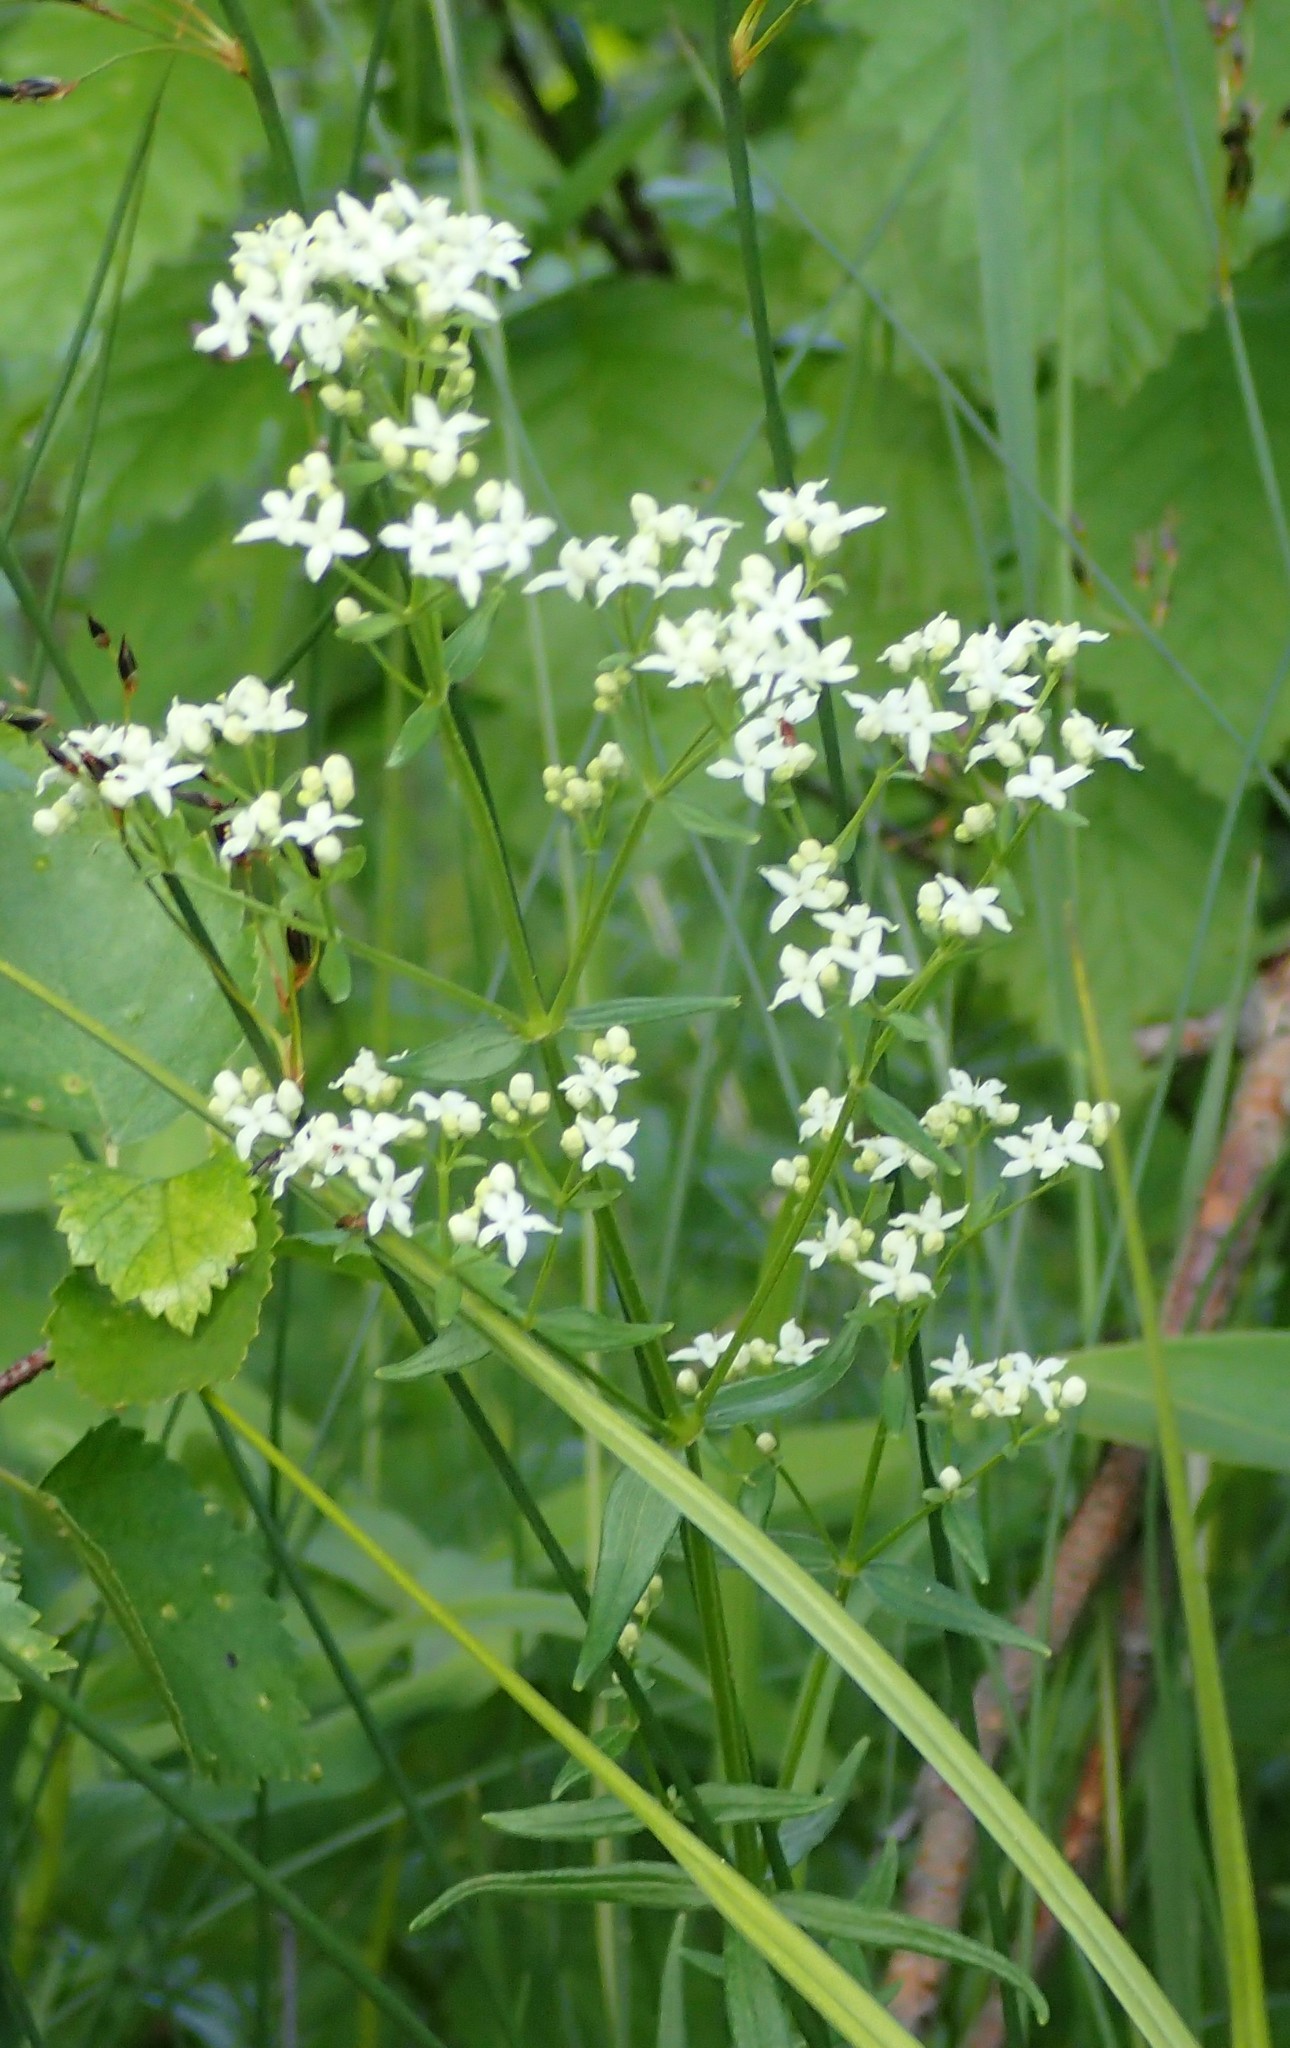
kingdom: Plantae
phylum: Tracheophyta
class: Magnoliopsida
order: Gentianales
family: Rubiaceae
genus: Galium
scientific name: Galium boreale
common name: Northern bedstraw
